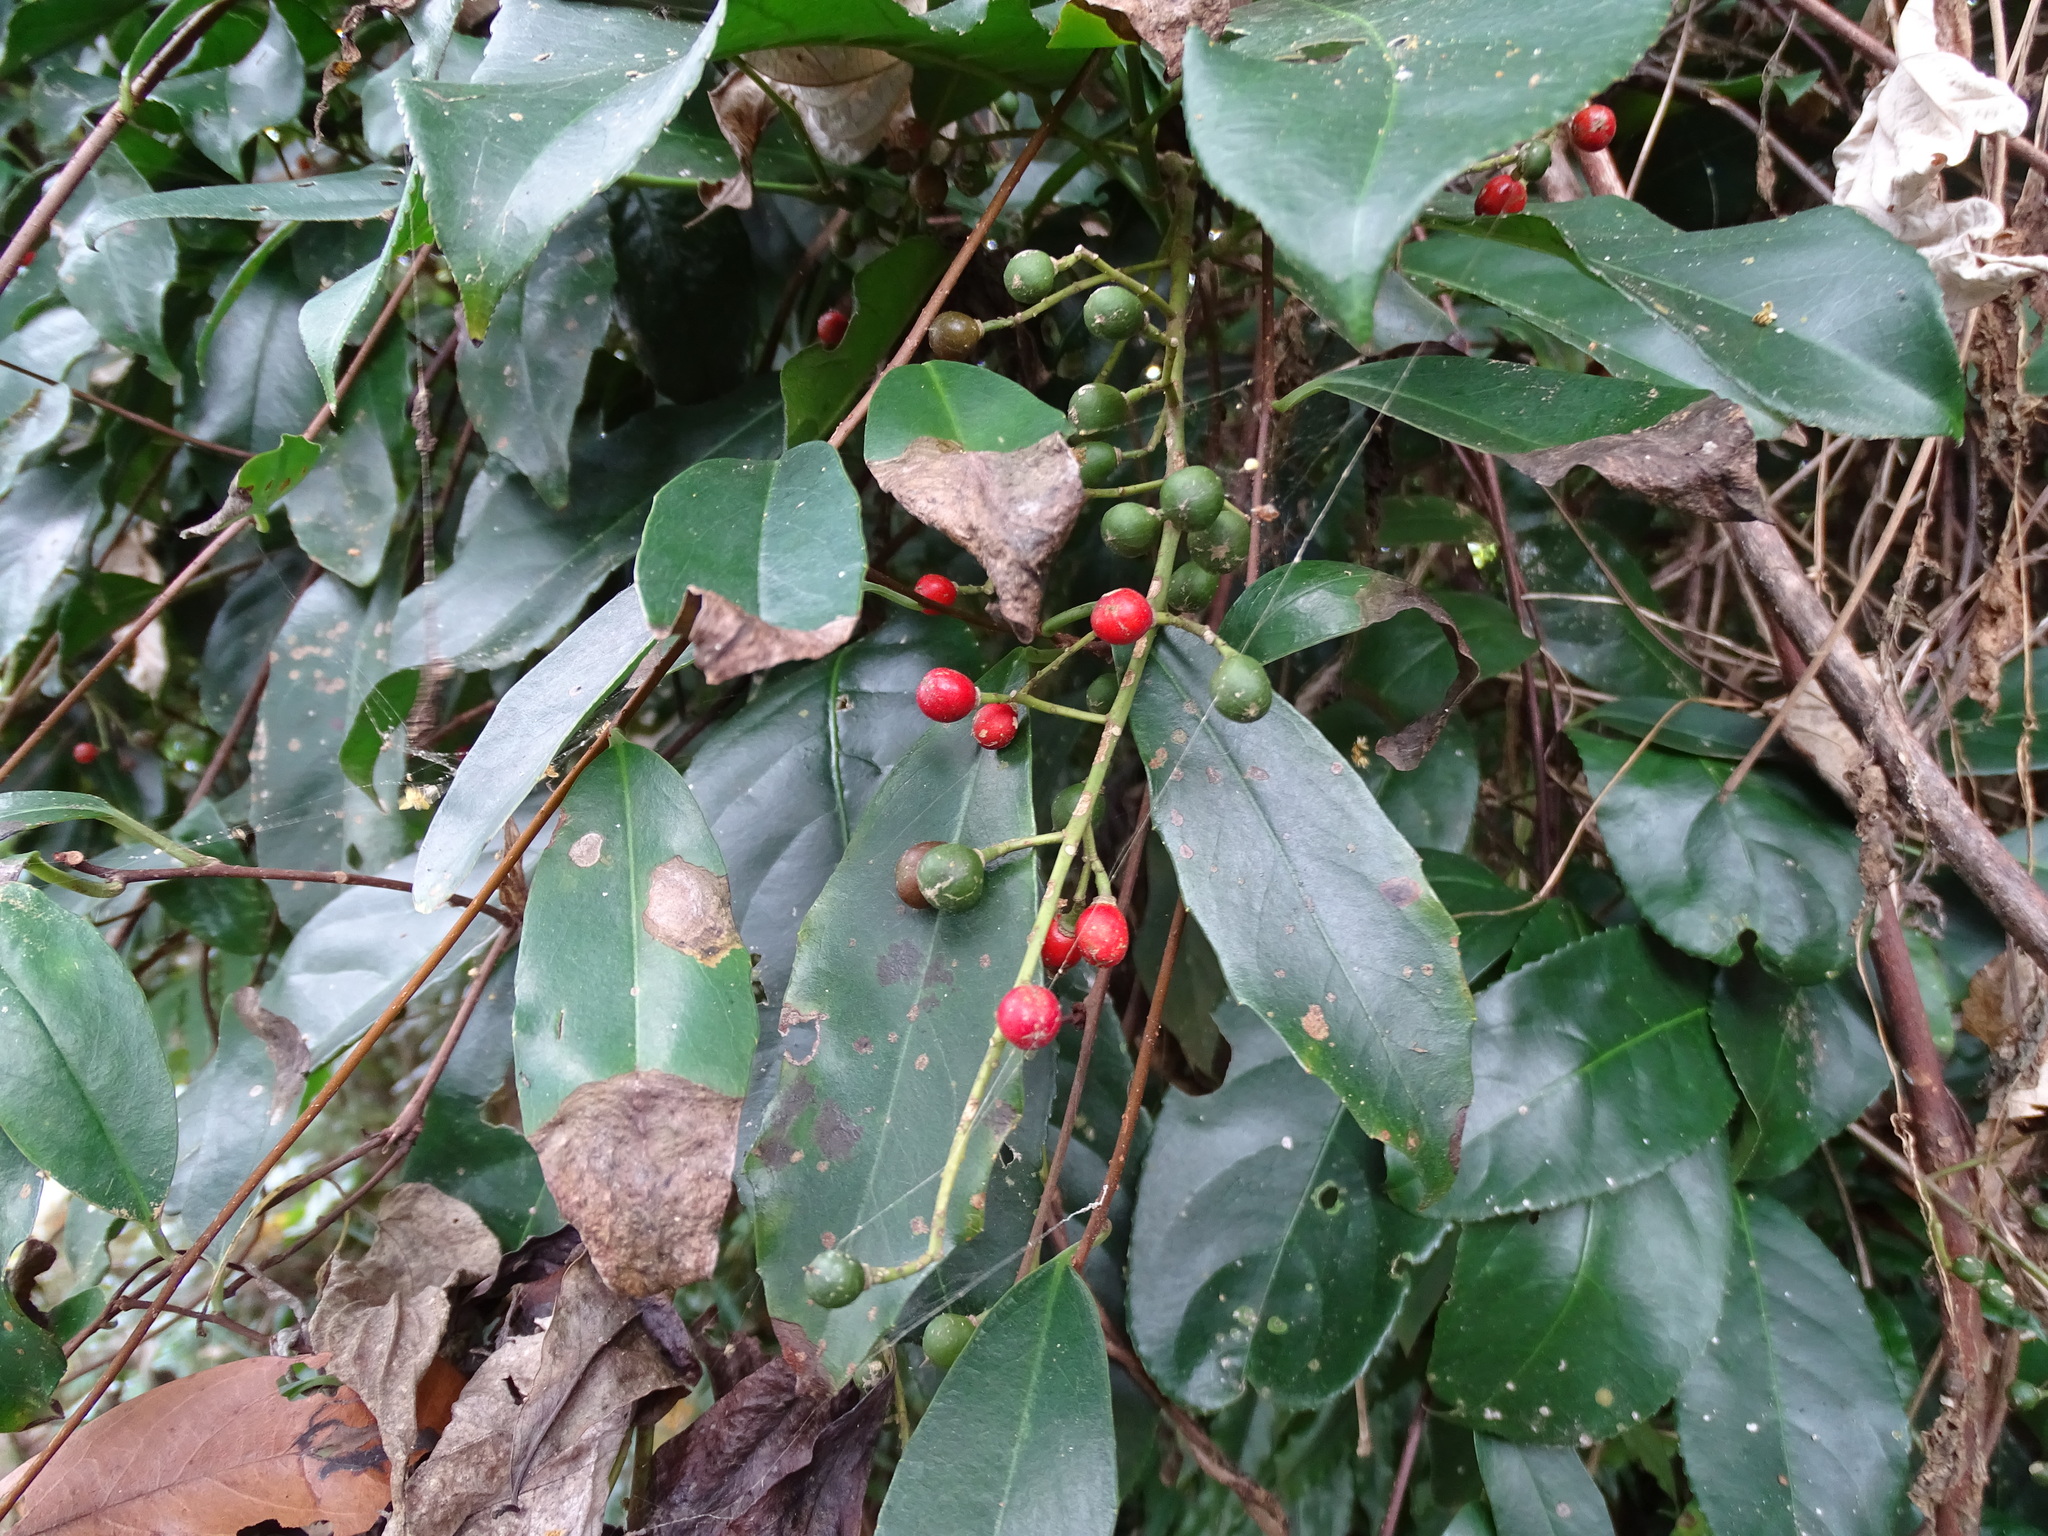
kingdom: Plantae
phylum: Tracheophyta
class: Magnoliopsida
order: Crossosomatales
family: Staphyleaceae
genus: Turpinia
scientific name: Turpinia formosana
